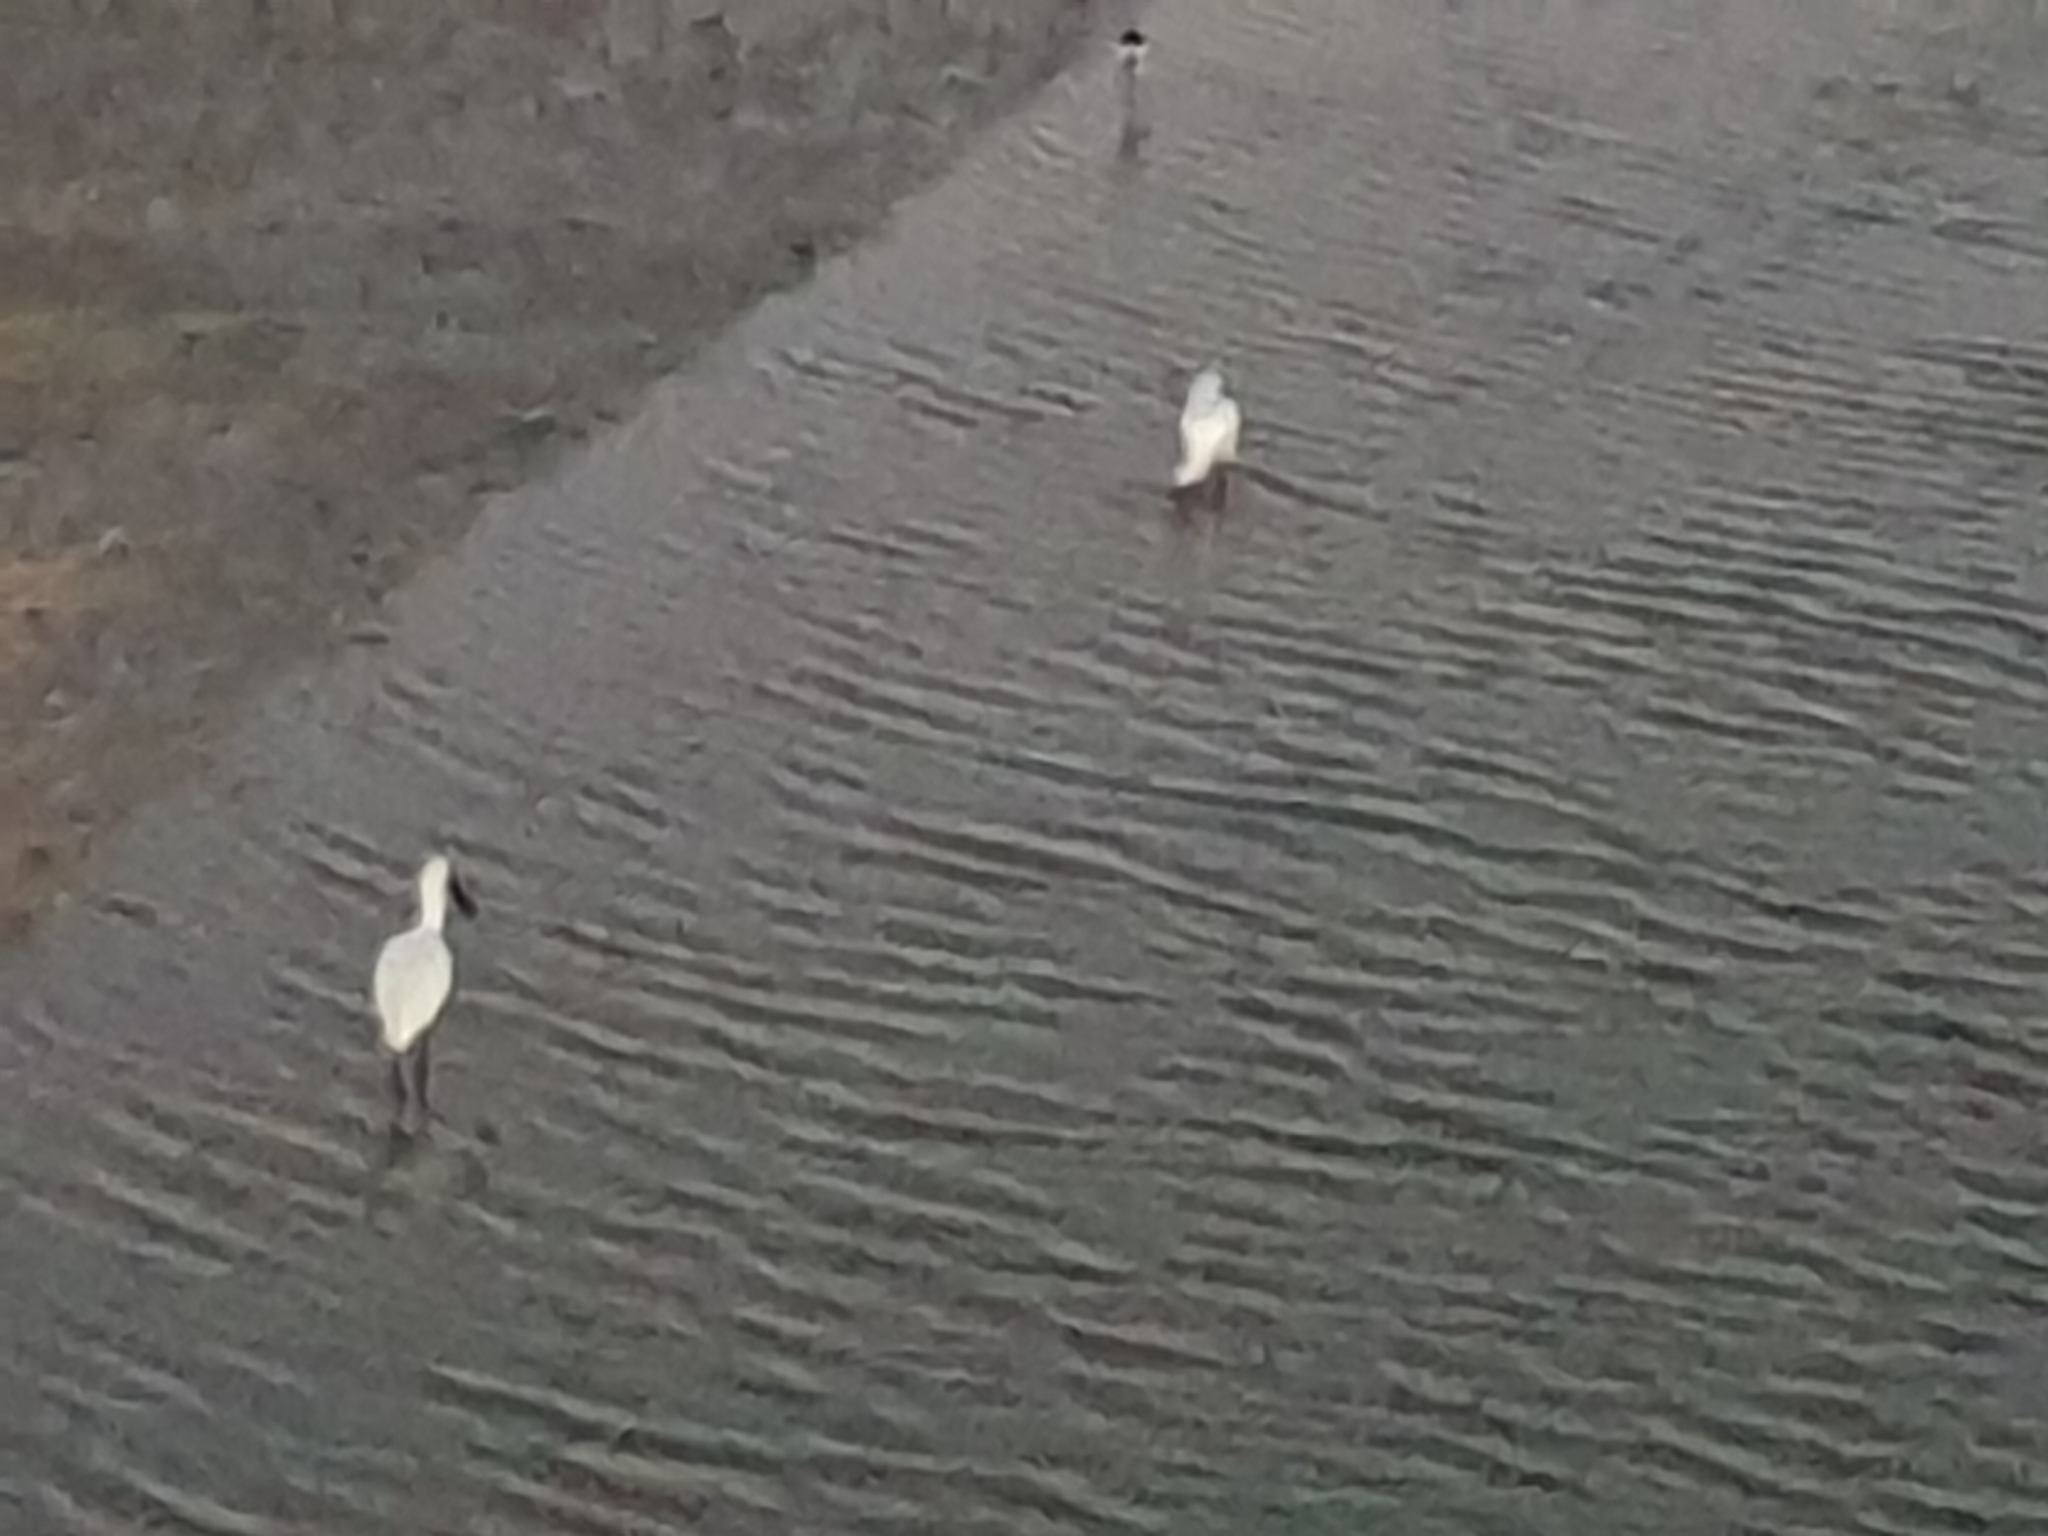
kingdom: Animalia
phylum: Chordata
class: Aves
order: Pelecaniformes
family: Threskiornithidae
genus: Platalea
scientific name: Platalea regia
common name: Royal spoonbill
